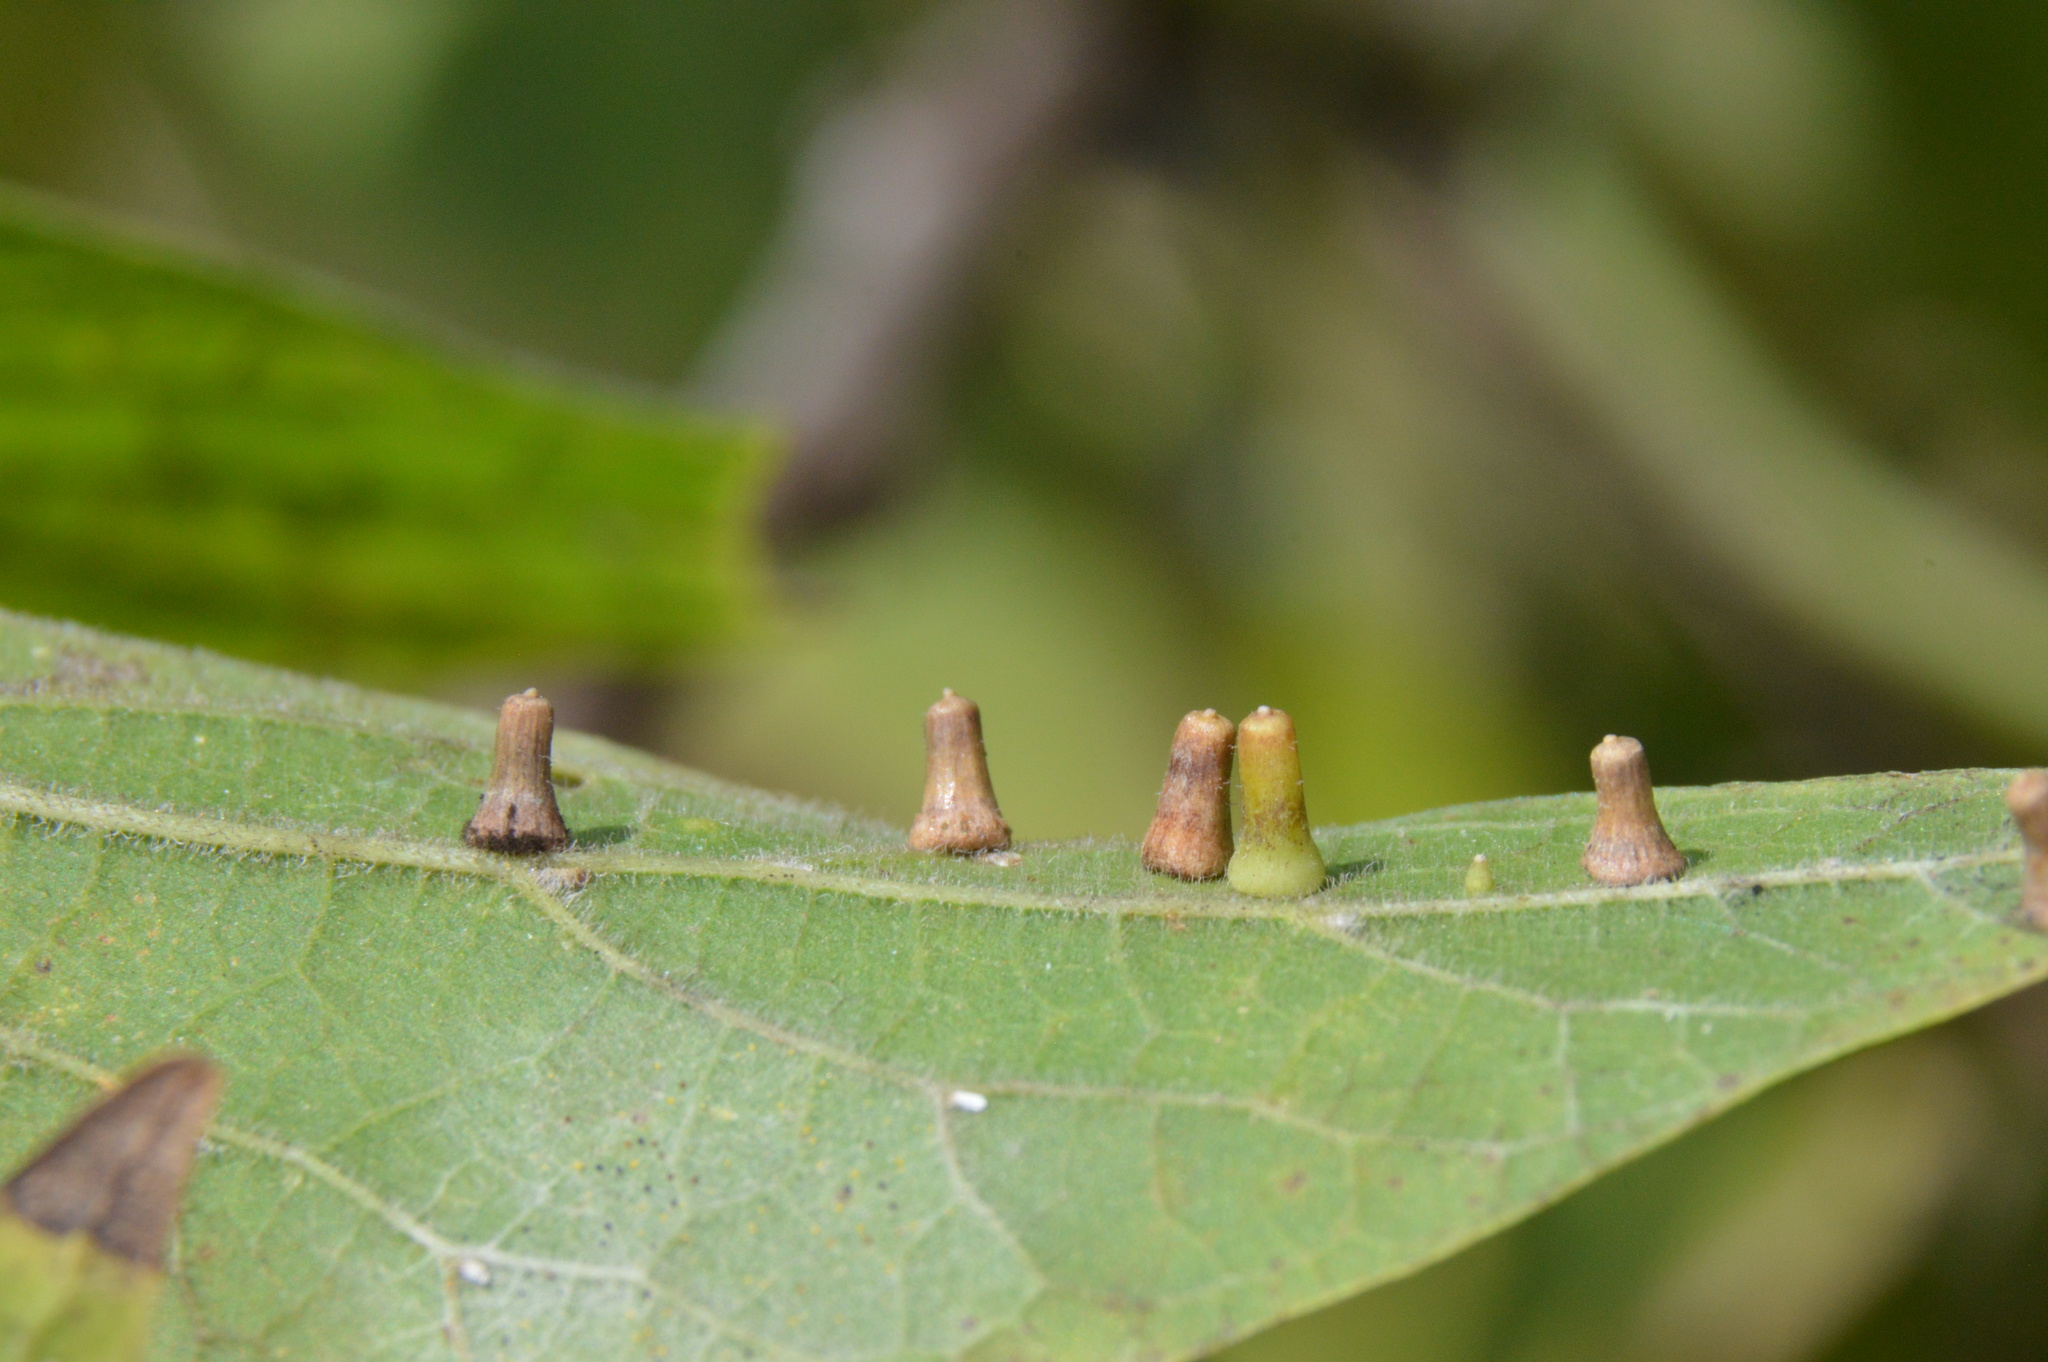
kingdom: Animalia
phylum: Arthropoda
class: Insecta
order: Diptera
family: Cecidomyiidae
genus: Celticecis
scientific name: Celticecis aciculata
